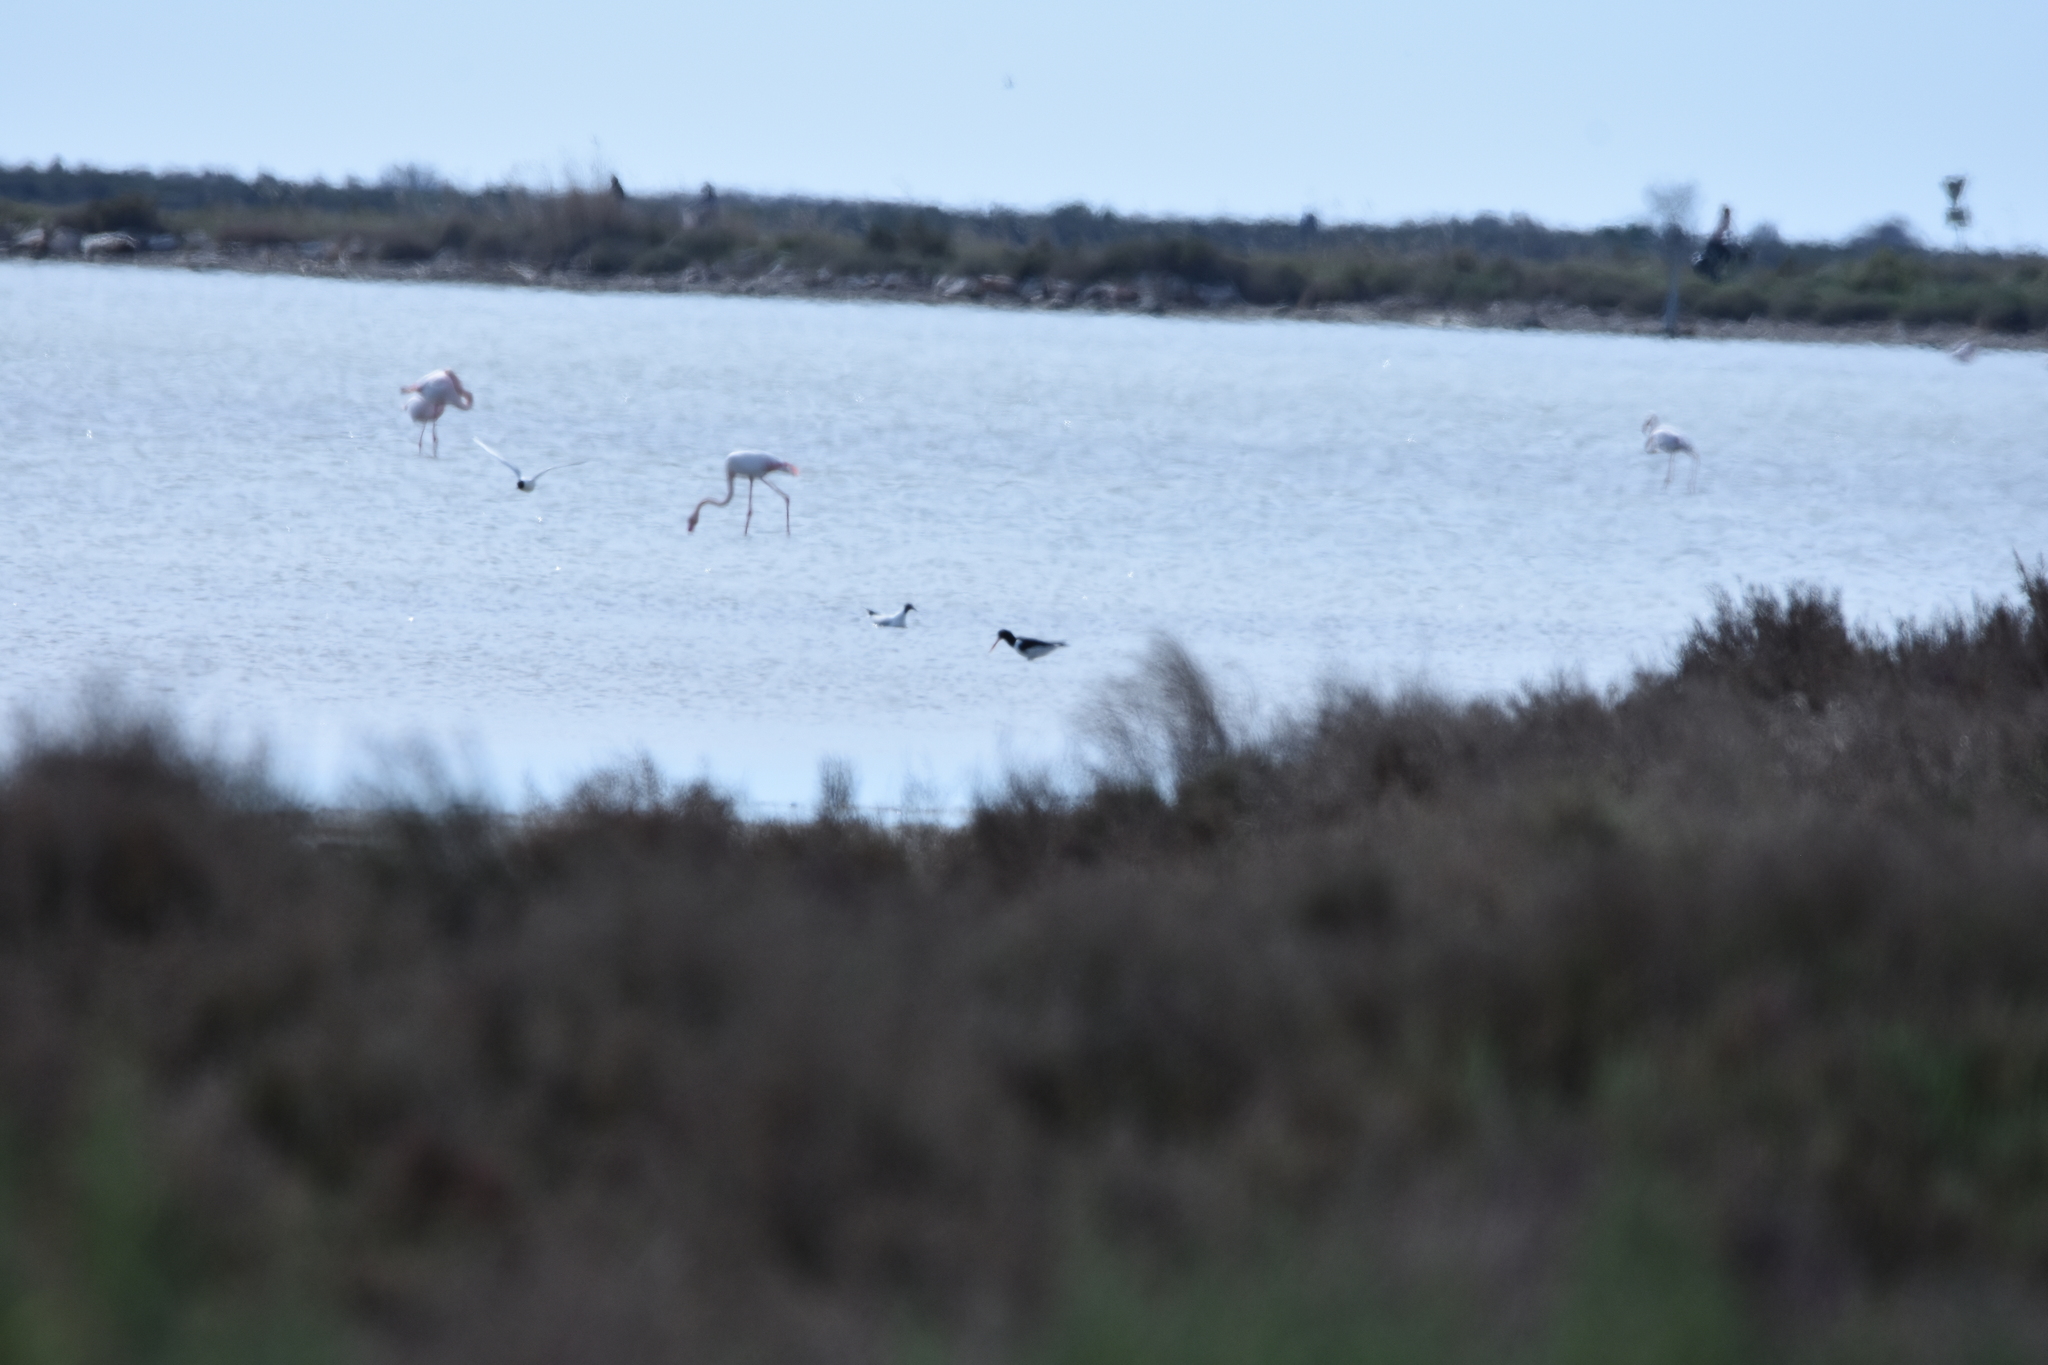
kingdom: Animalia
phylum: Chordata
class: Aves
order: Charadriiformes
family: Haematopodidae
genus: Haematopus
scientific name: Haematopus ostralegus
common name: Eurasian oystercatcher
